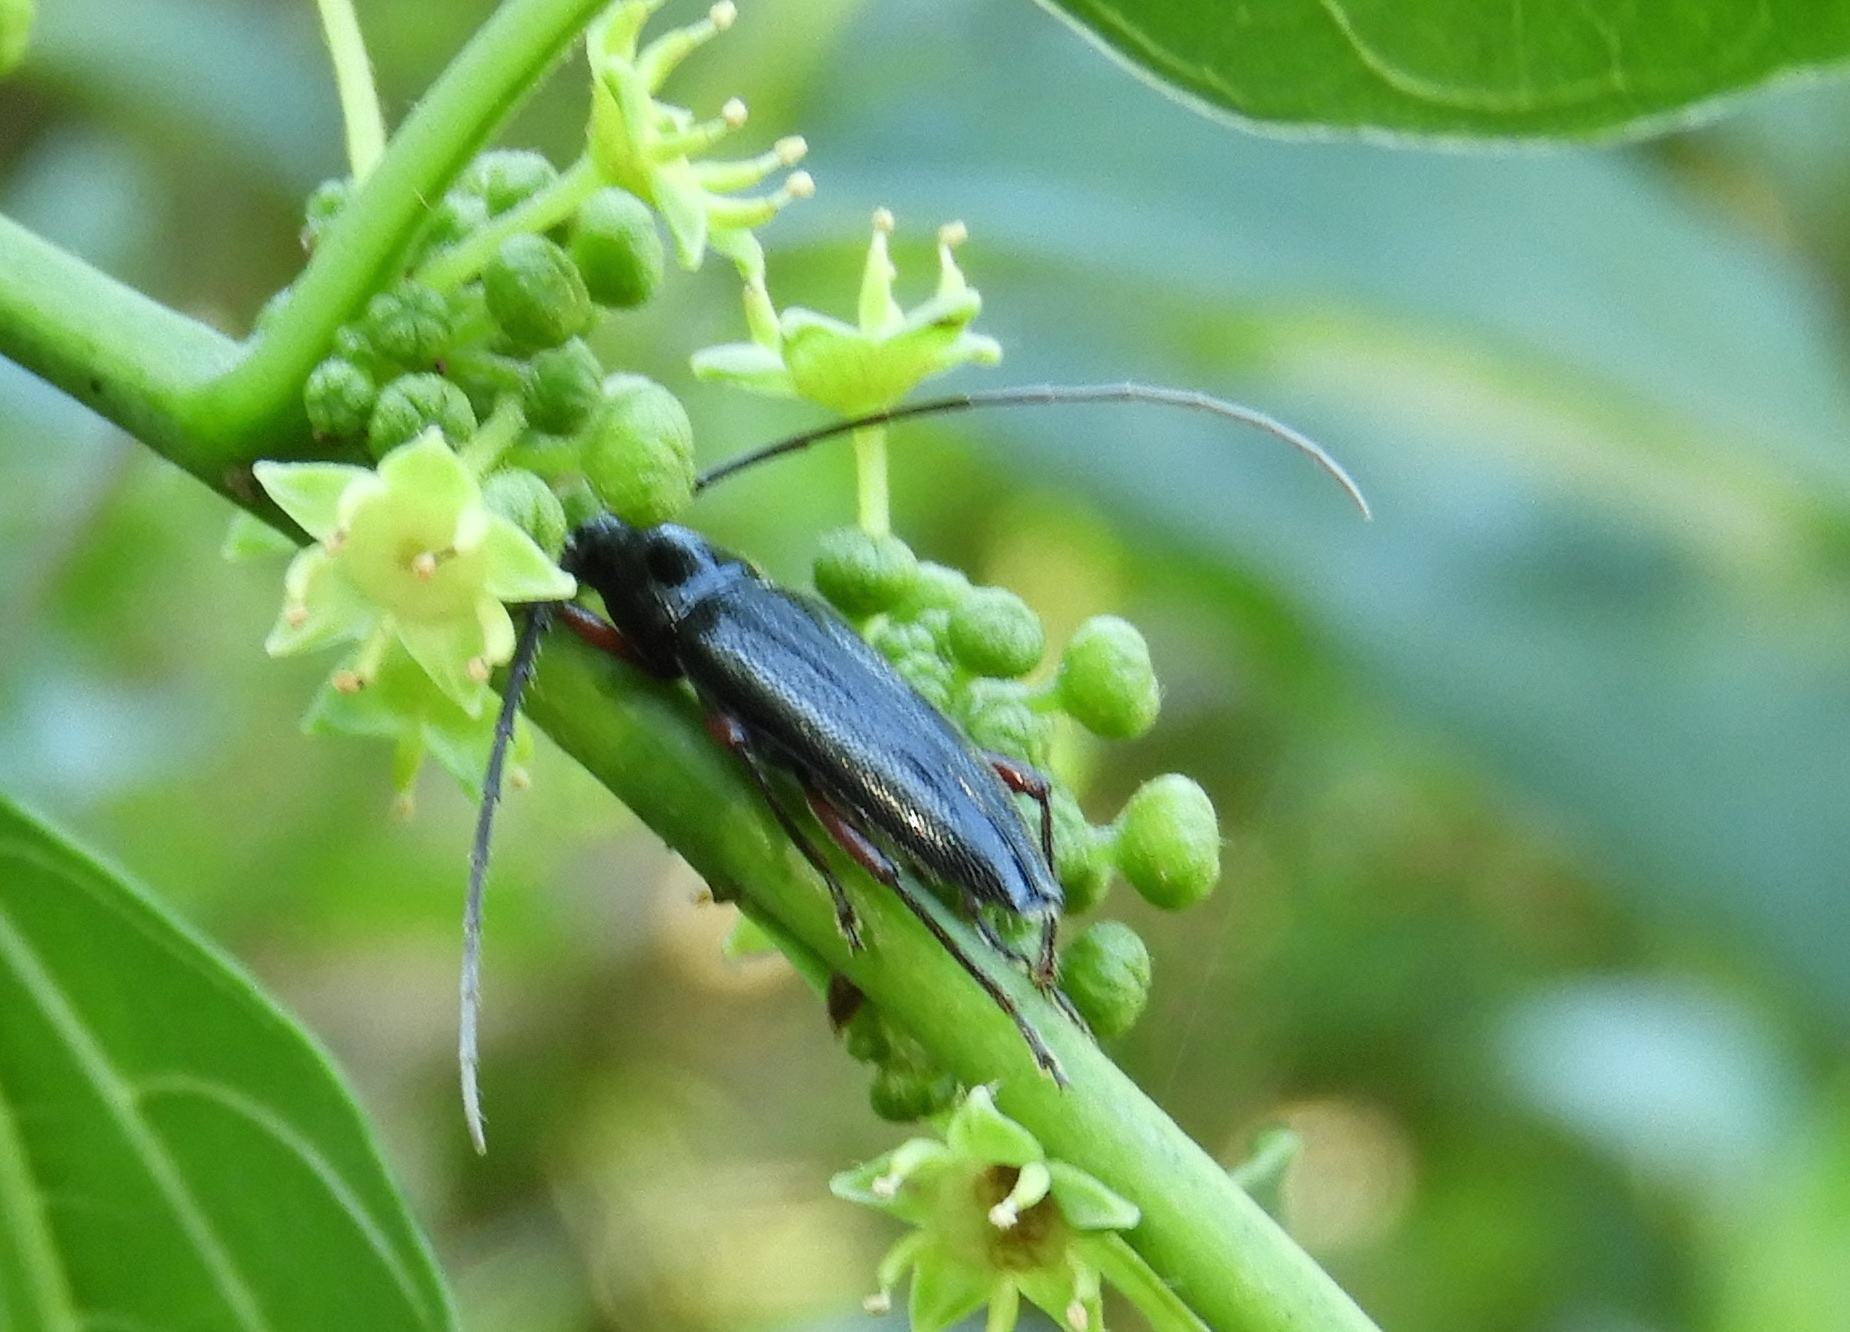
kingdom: Animalia
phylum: Arthropoda
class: Insecta
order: Coleoptera
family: Cerambycidae
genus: Stenosphenus
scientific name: Stenosphenus
